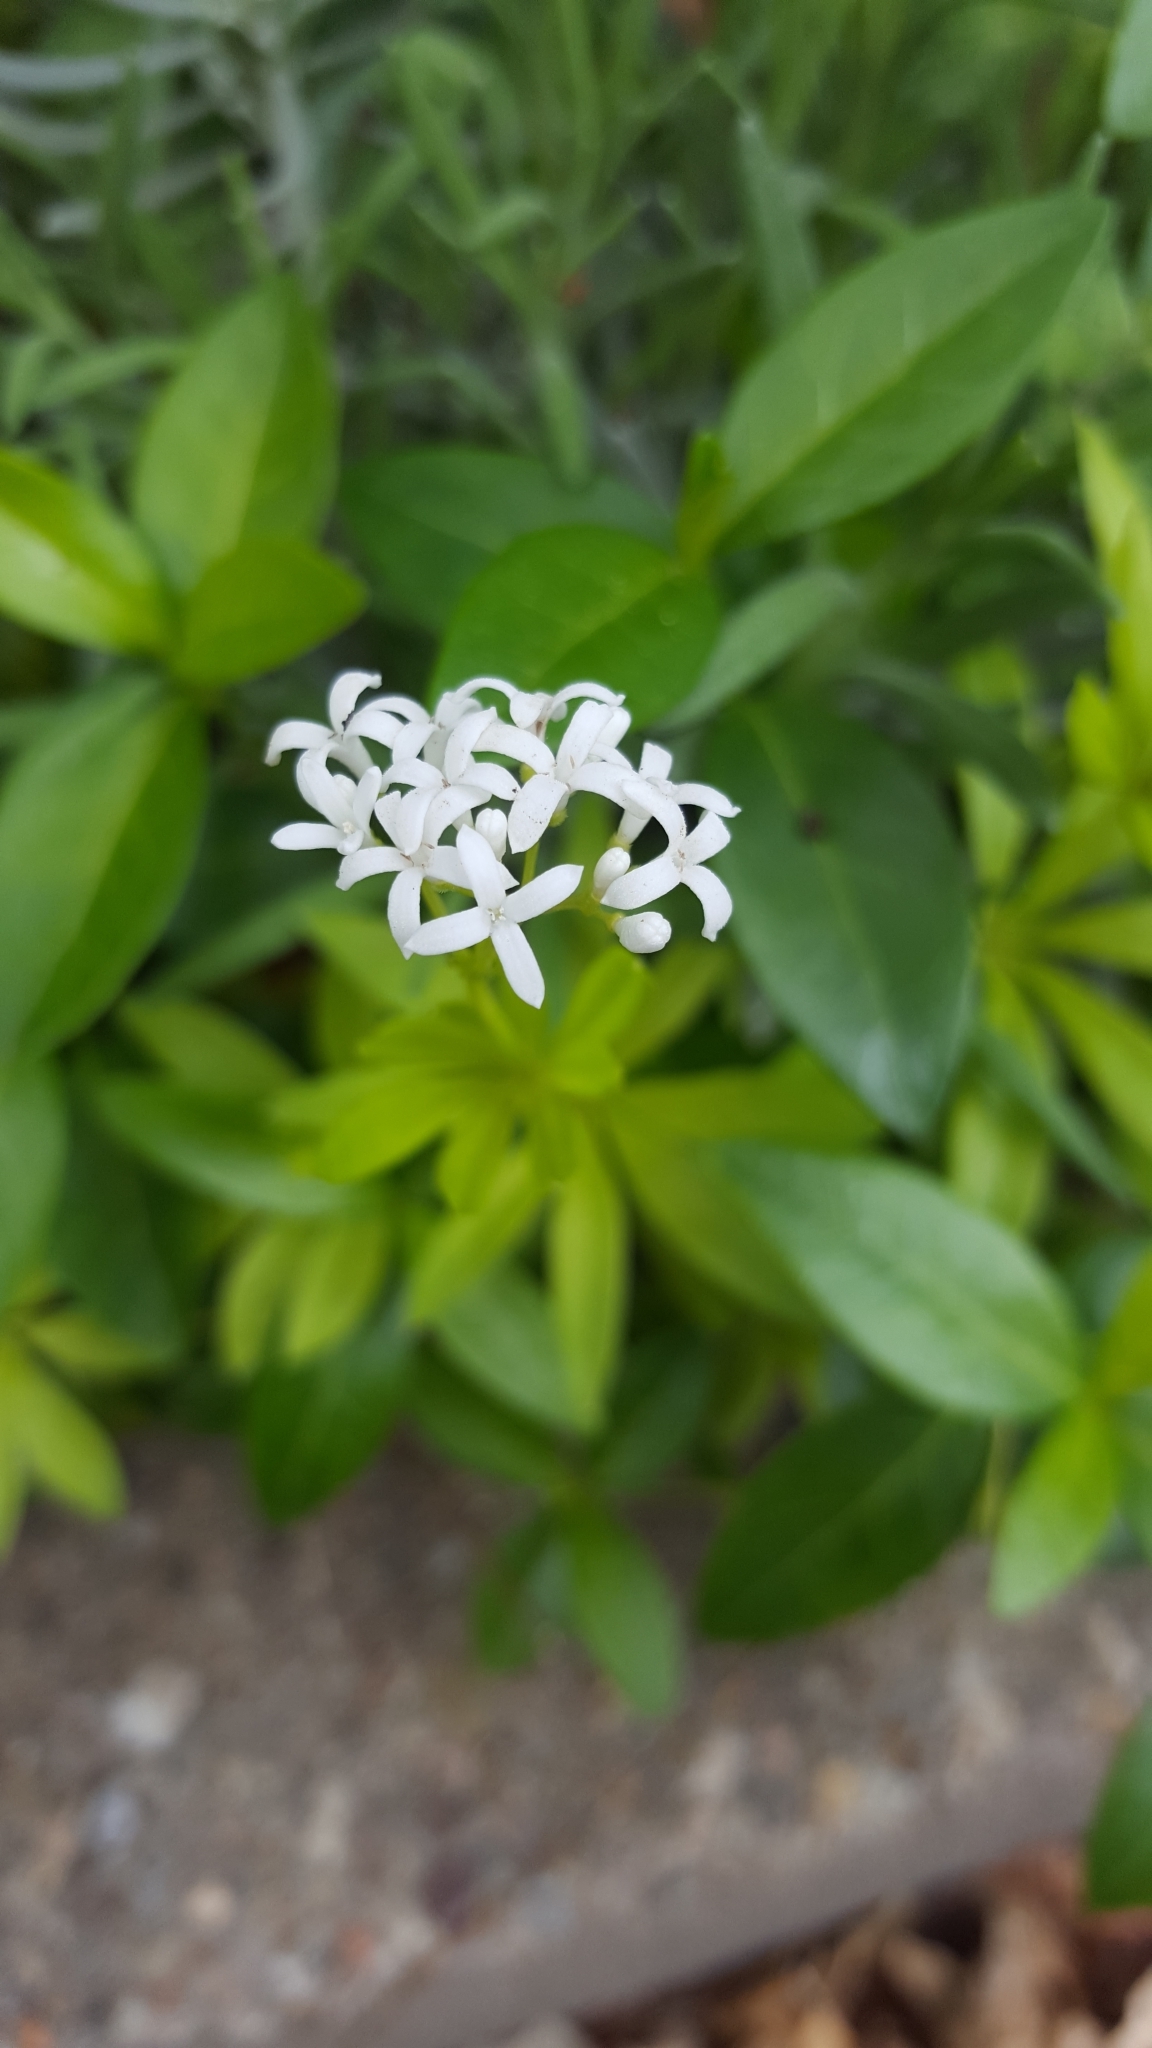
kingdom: Plantae
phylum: Tracheophyta
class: Magnoliopsida
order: Gentianales
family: Rubiaceae
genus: Galium
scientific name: Galium odoratum
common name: Sweet woodruff
